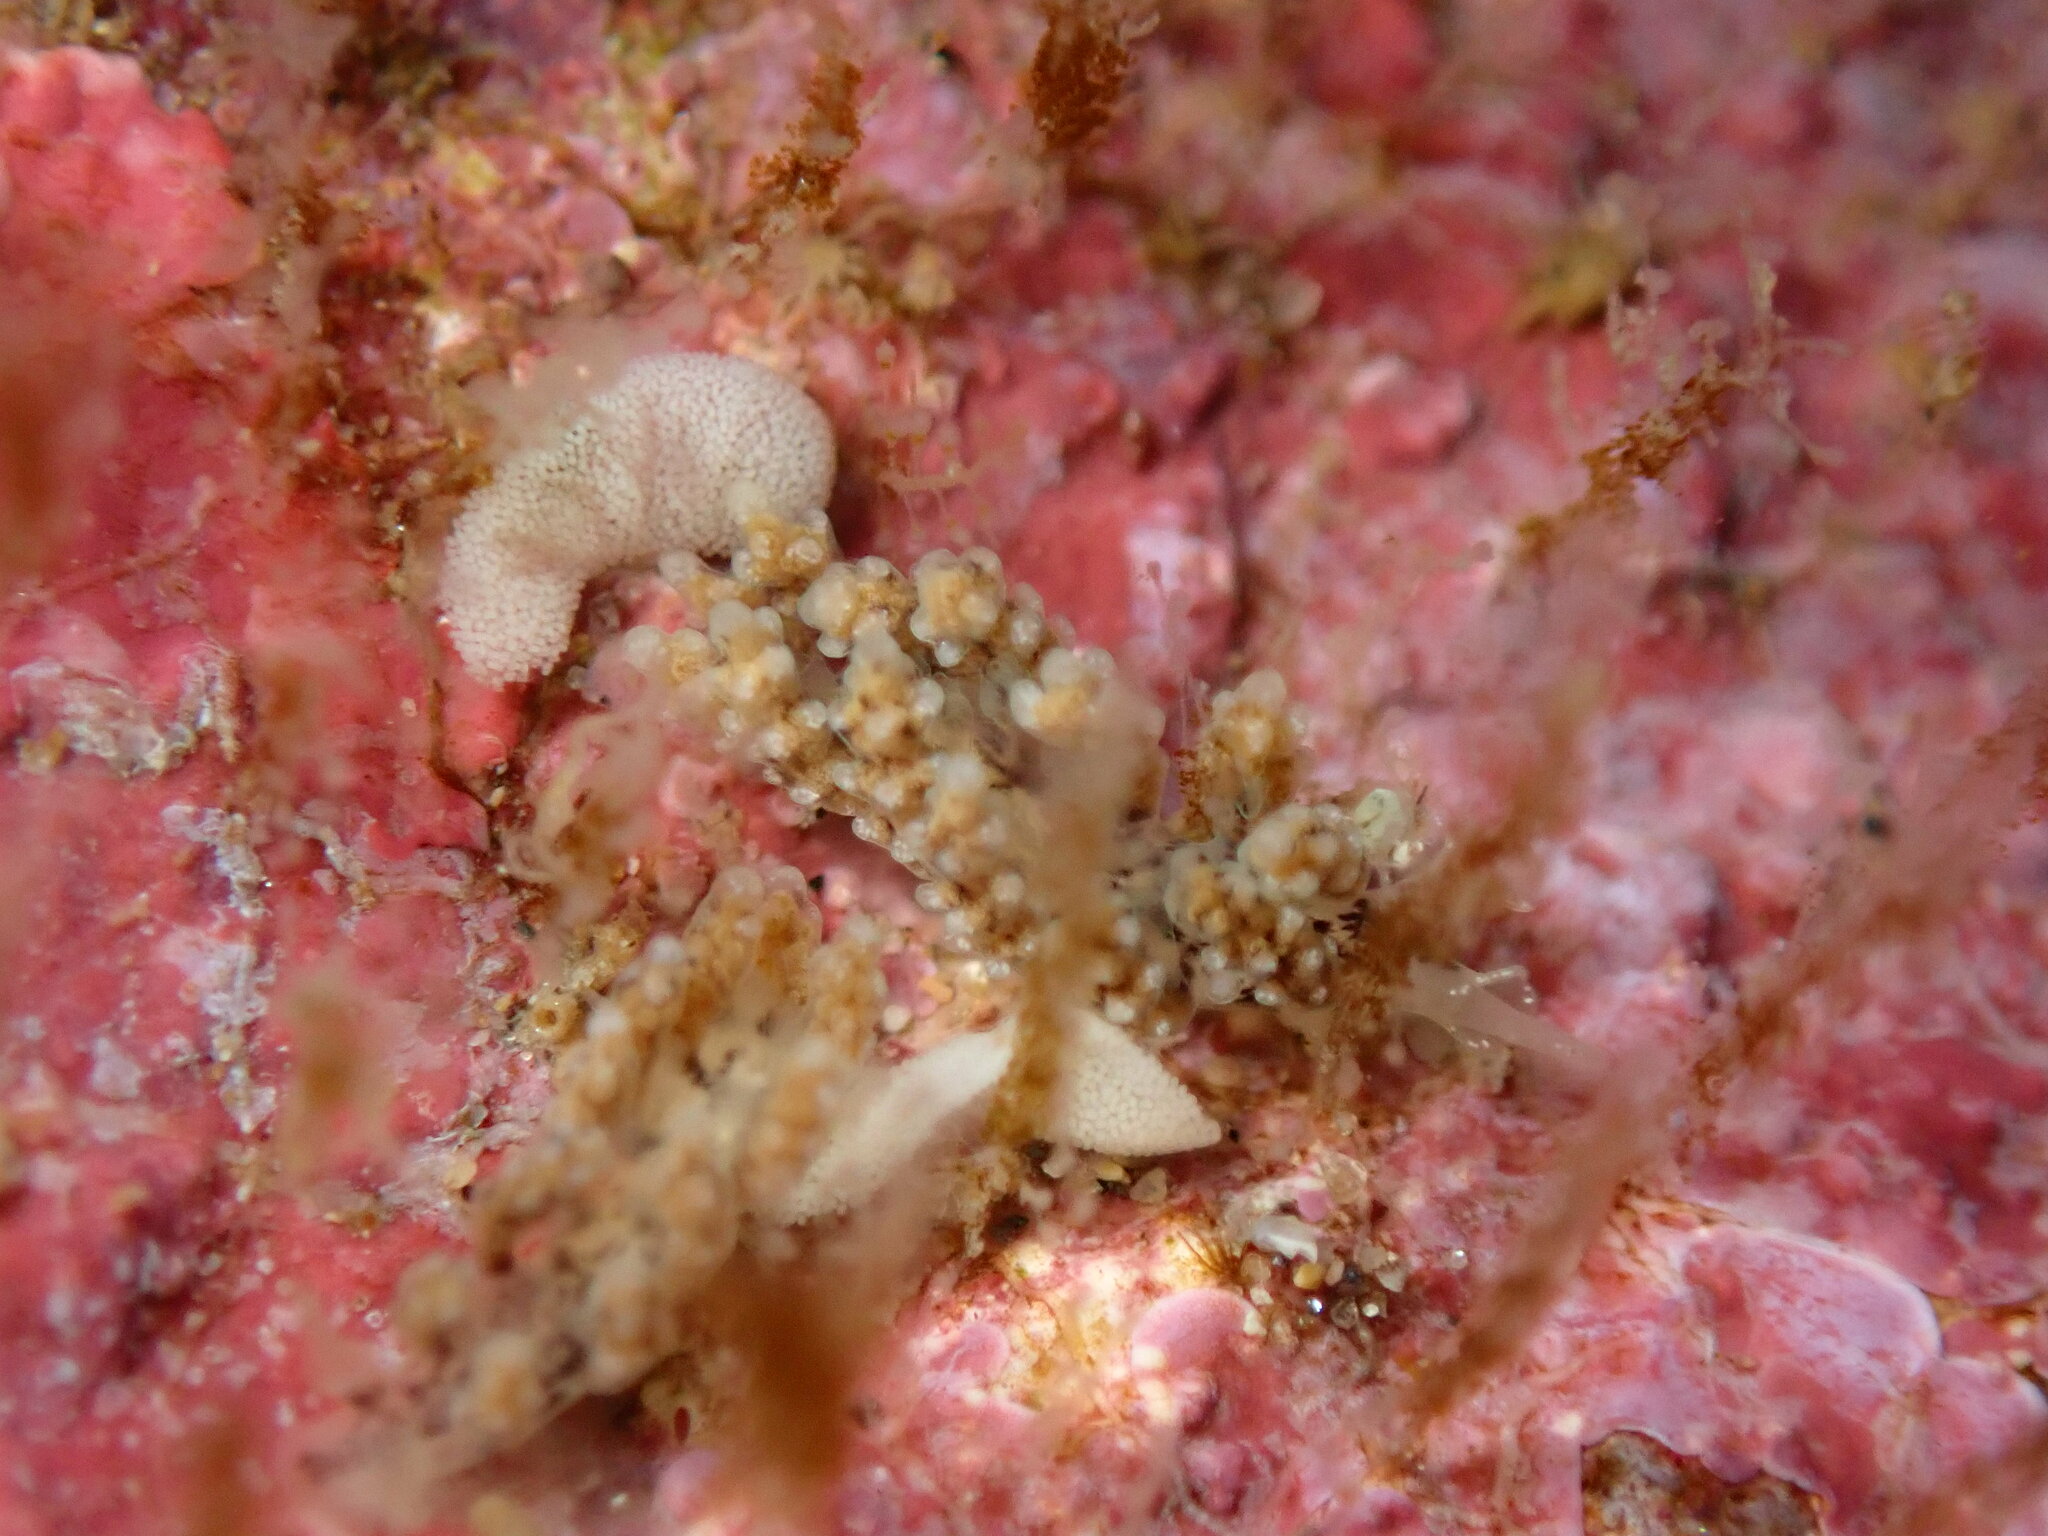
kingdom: Animalia
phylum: Mollusca
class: Gastropoda
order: Nudibranchia
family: Dotidae
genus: Doto
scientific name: Doto kya
